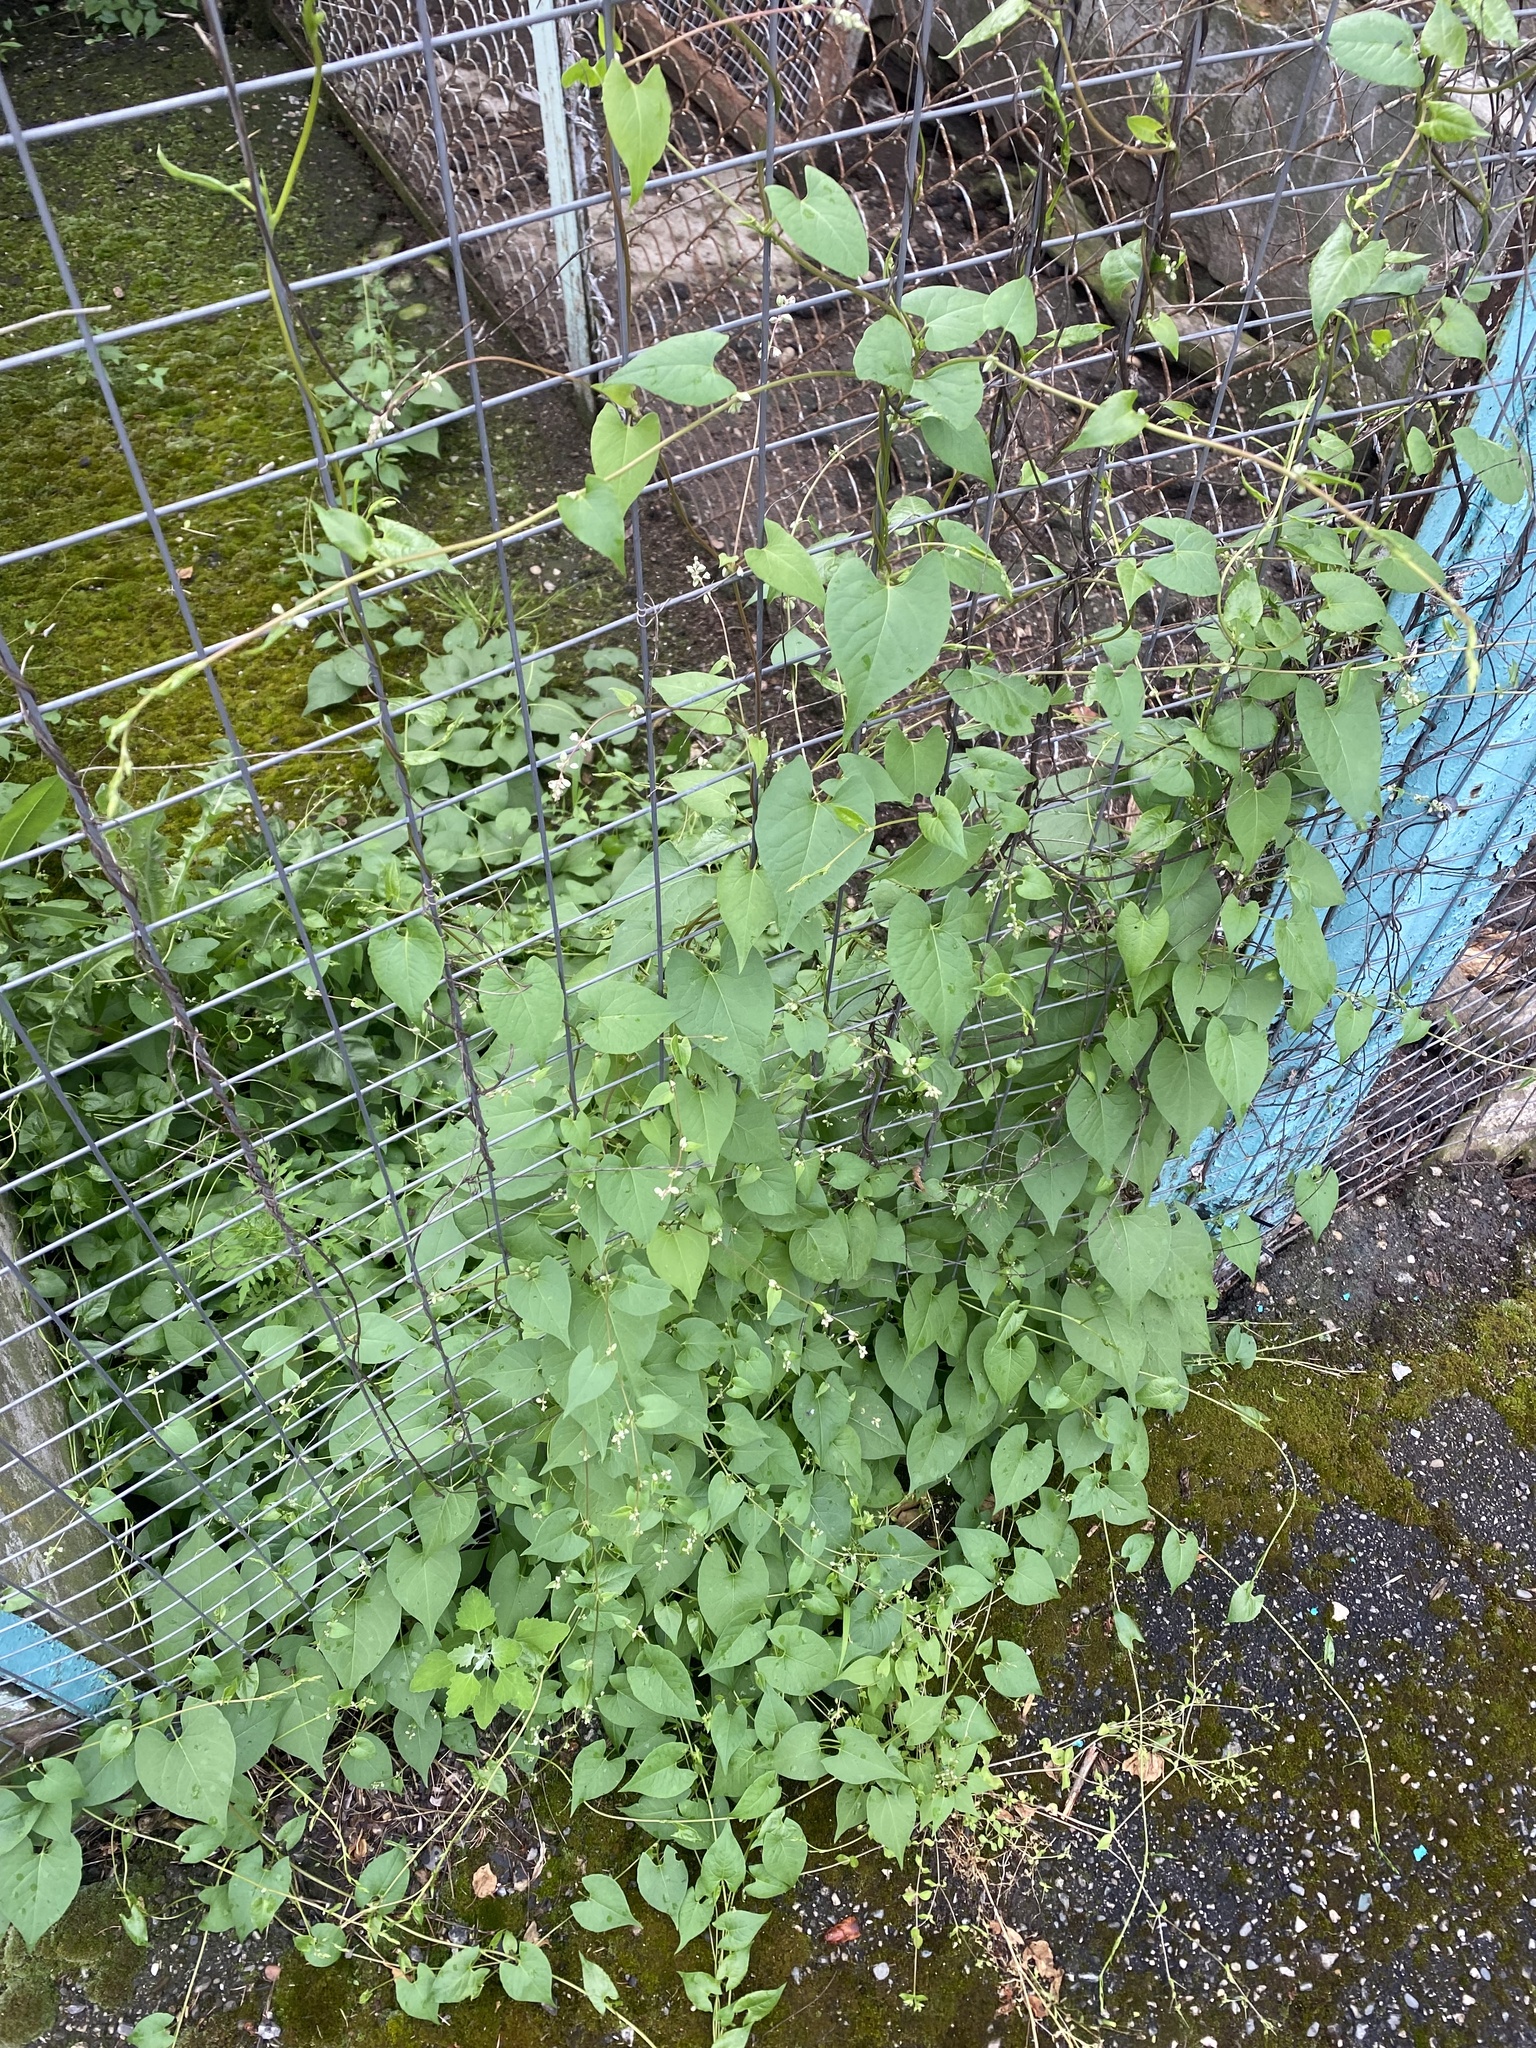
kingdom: Plantae
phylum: Tracheophyta
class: Magnoliopsida
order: Caryophyllales
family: Polygonaceae
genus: Fallopia
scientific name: Fallopia convolvulus
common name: Black bindweed
